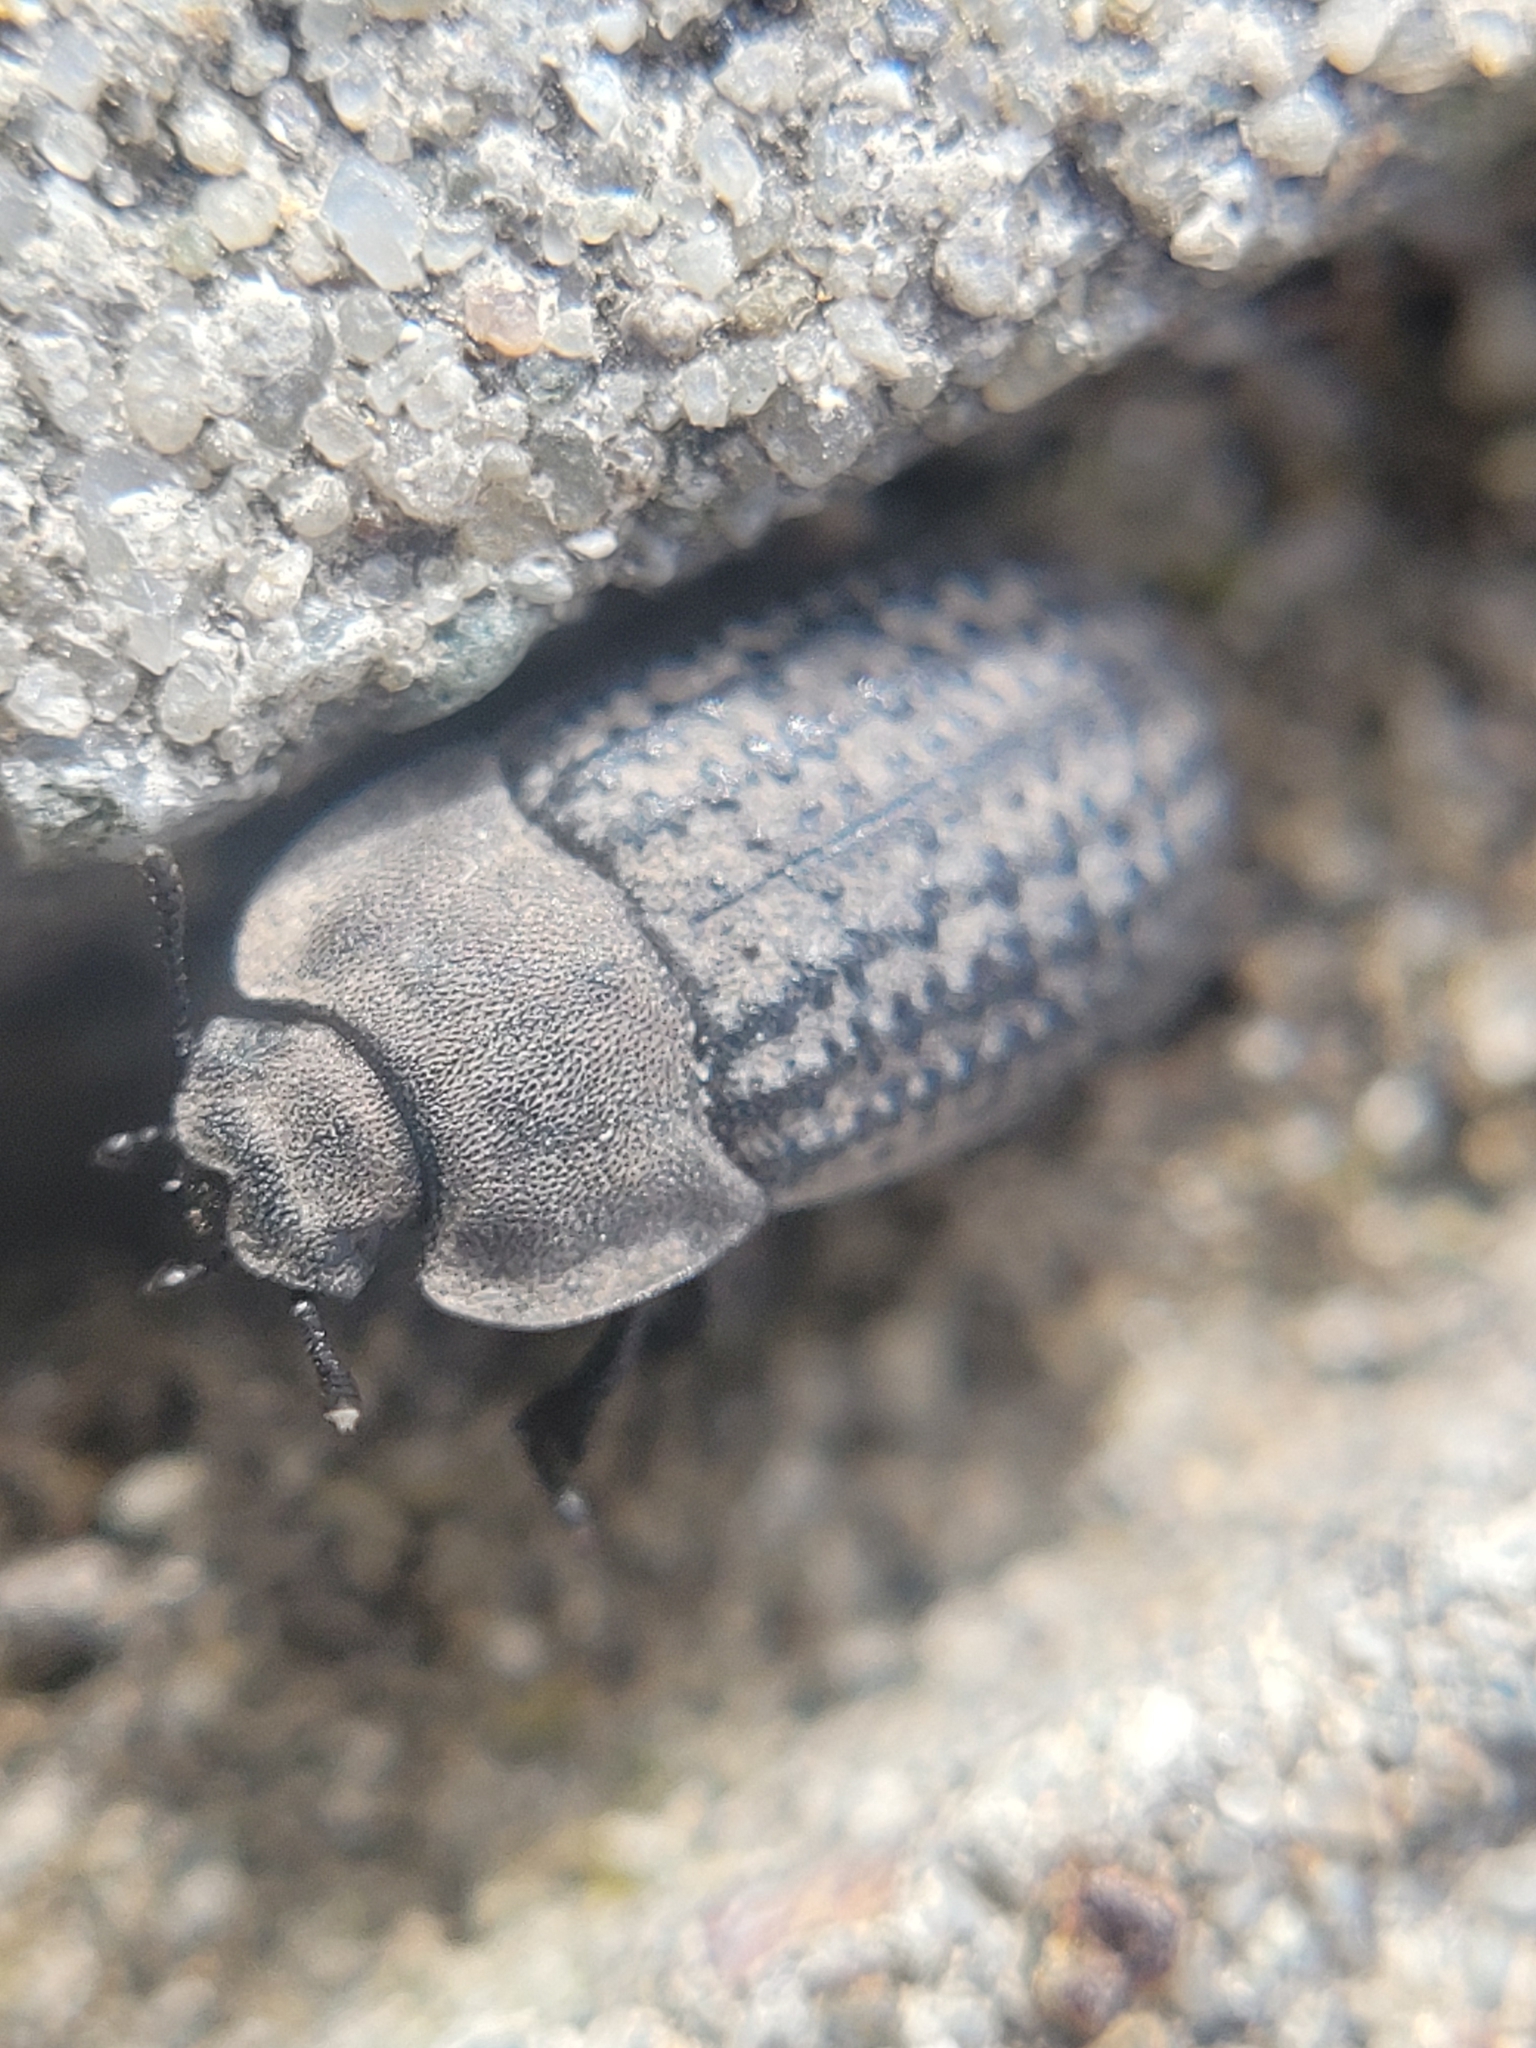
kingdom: Animalia
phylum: Arthropoda
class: Insecta
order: Coleoptera
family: Tenebrionidae
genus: Opatrum
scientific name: Opatrum sabulosum
